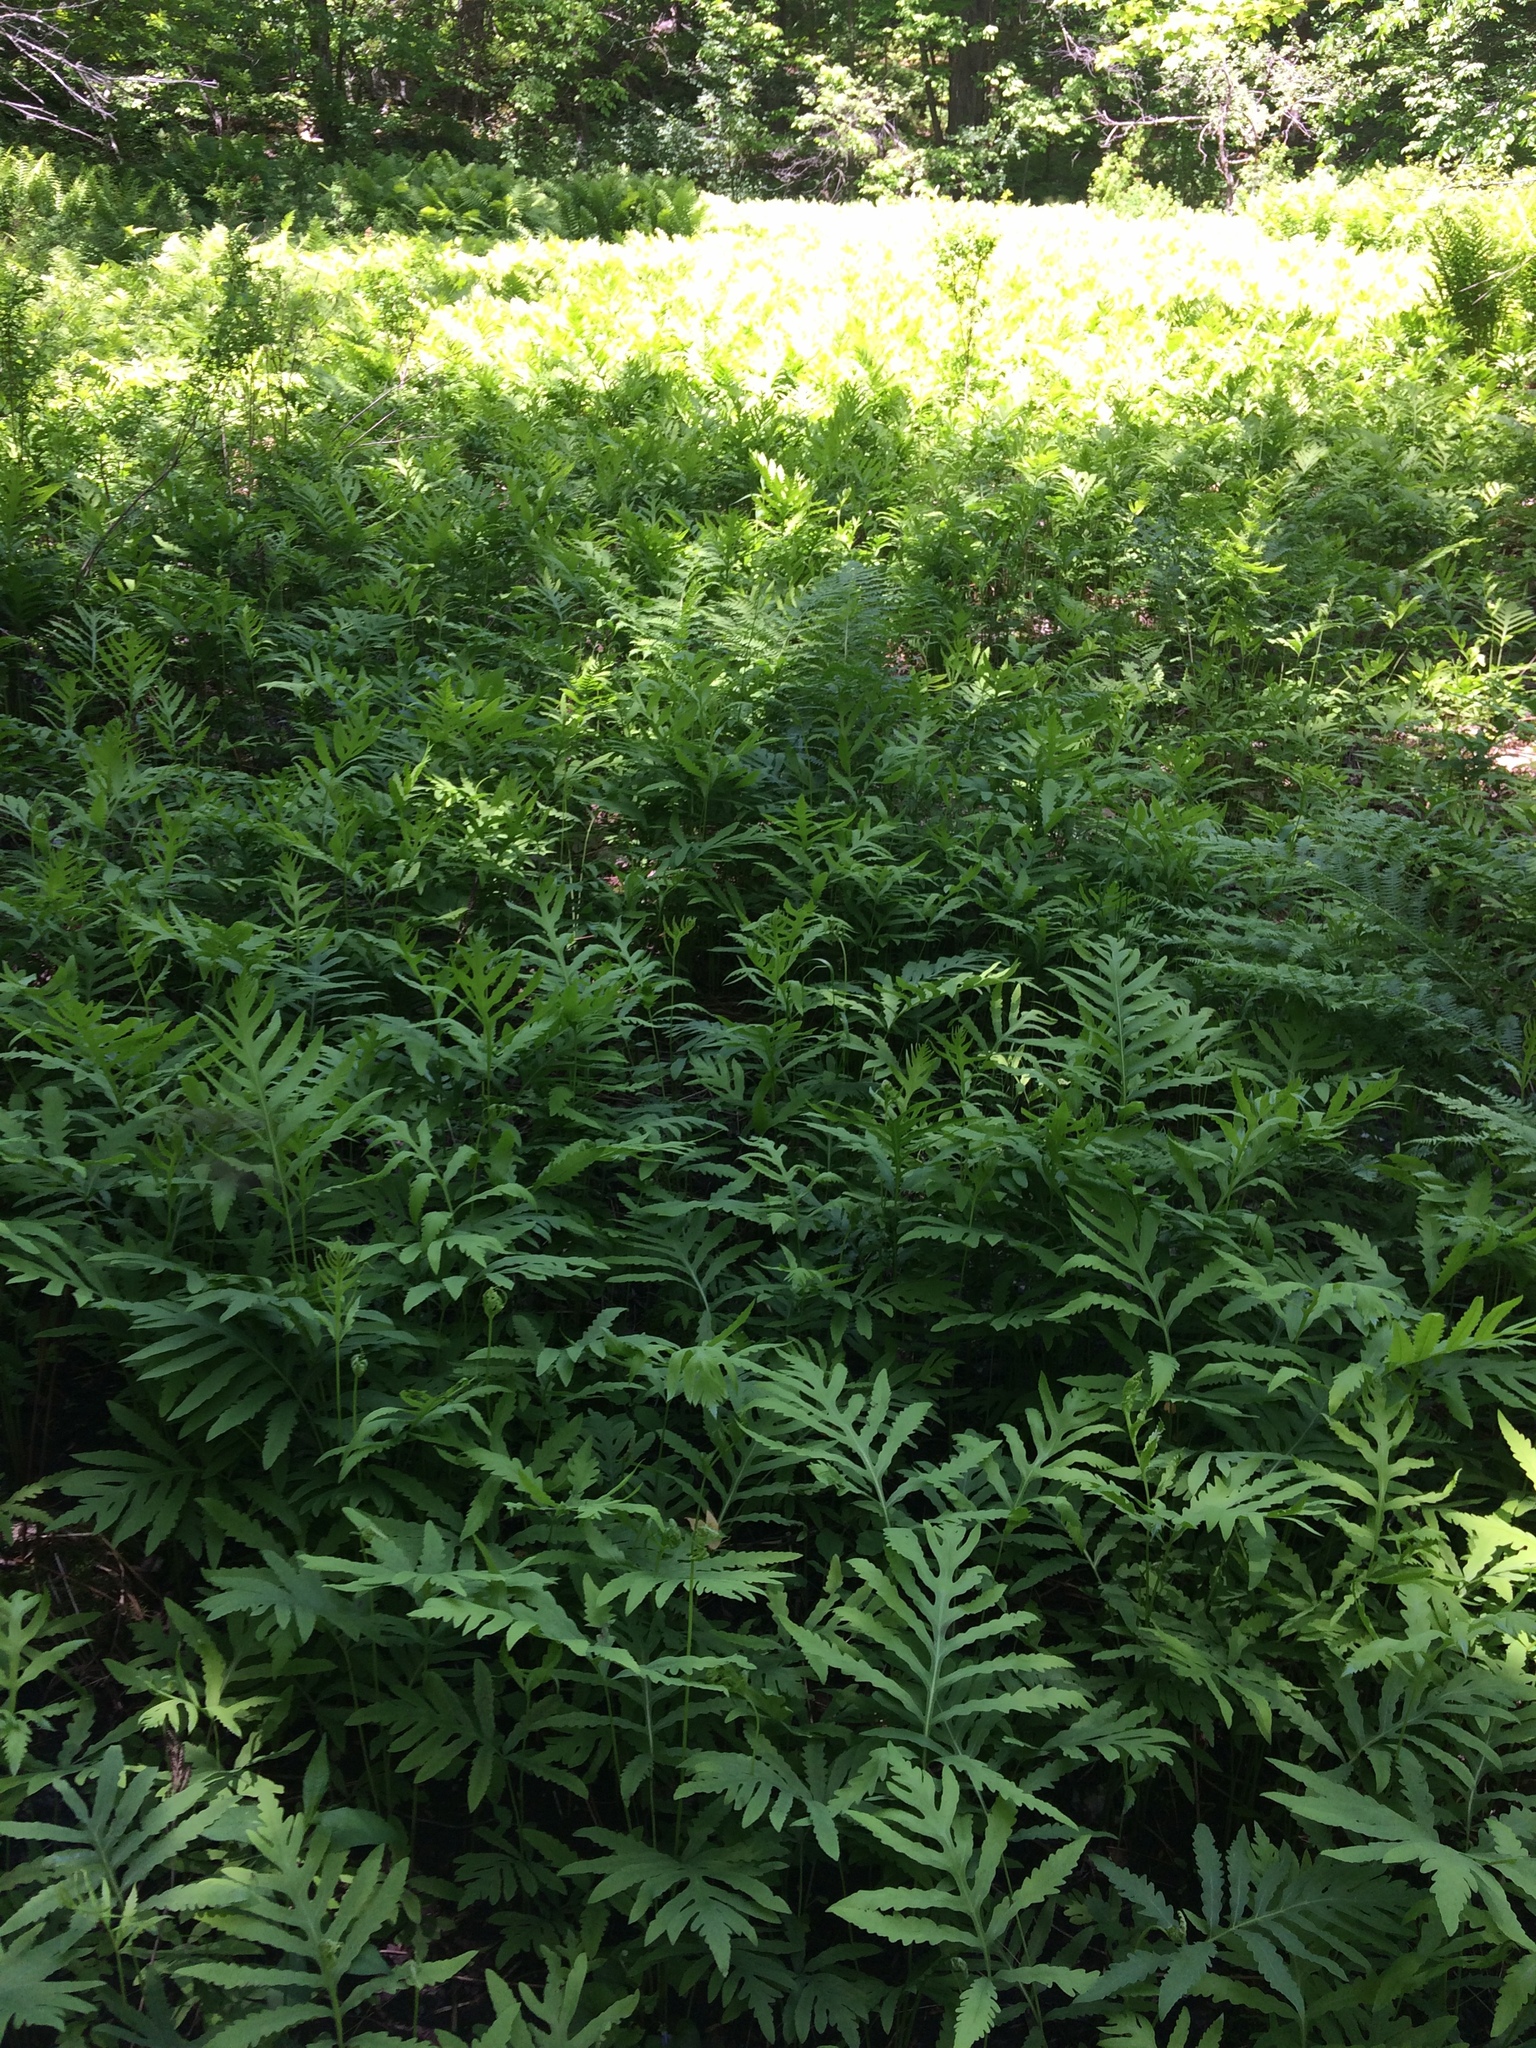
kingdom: Plantae
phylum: Tracheophyta
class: Polypodiopsida
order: Polypodiales
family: Onocleaceae
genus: Onoclea
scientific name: Onoclea sensibilis
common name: Sensitive fern
